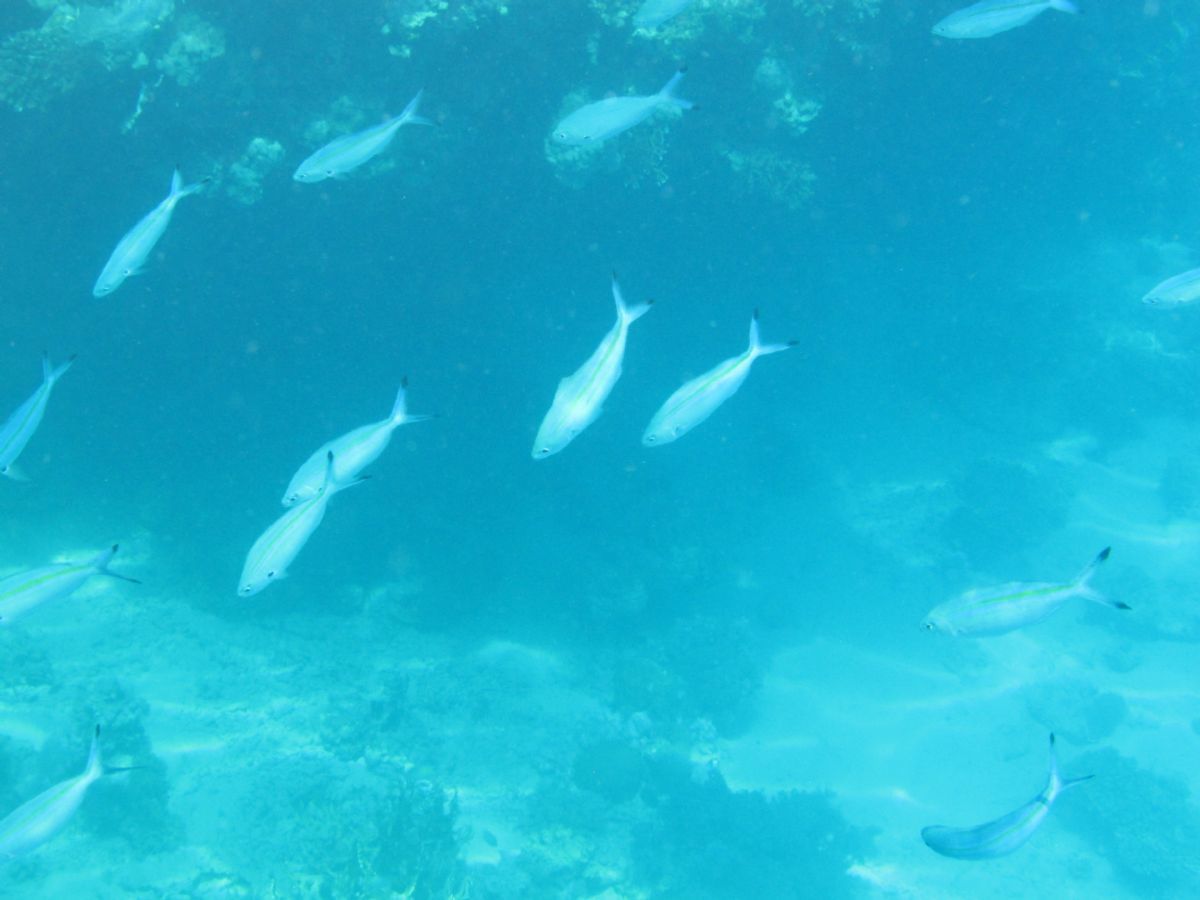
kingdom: Animalia
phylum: Chordata
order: Perciformes
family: Caesionidae
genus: Caesio
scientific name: Caesio lunaris
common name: Blue fusilier
